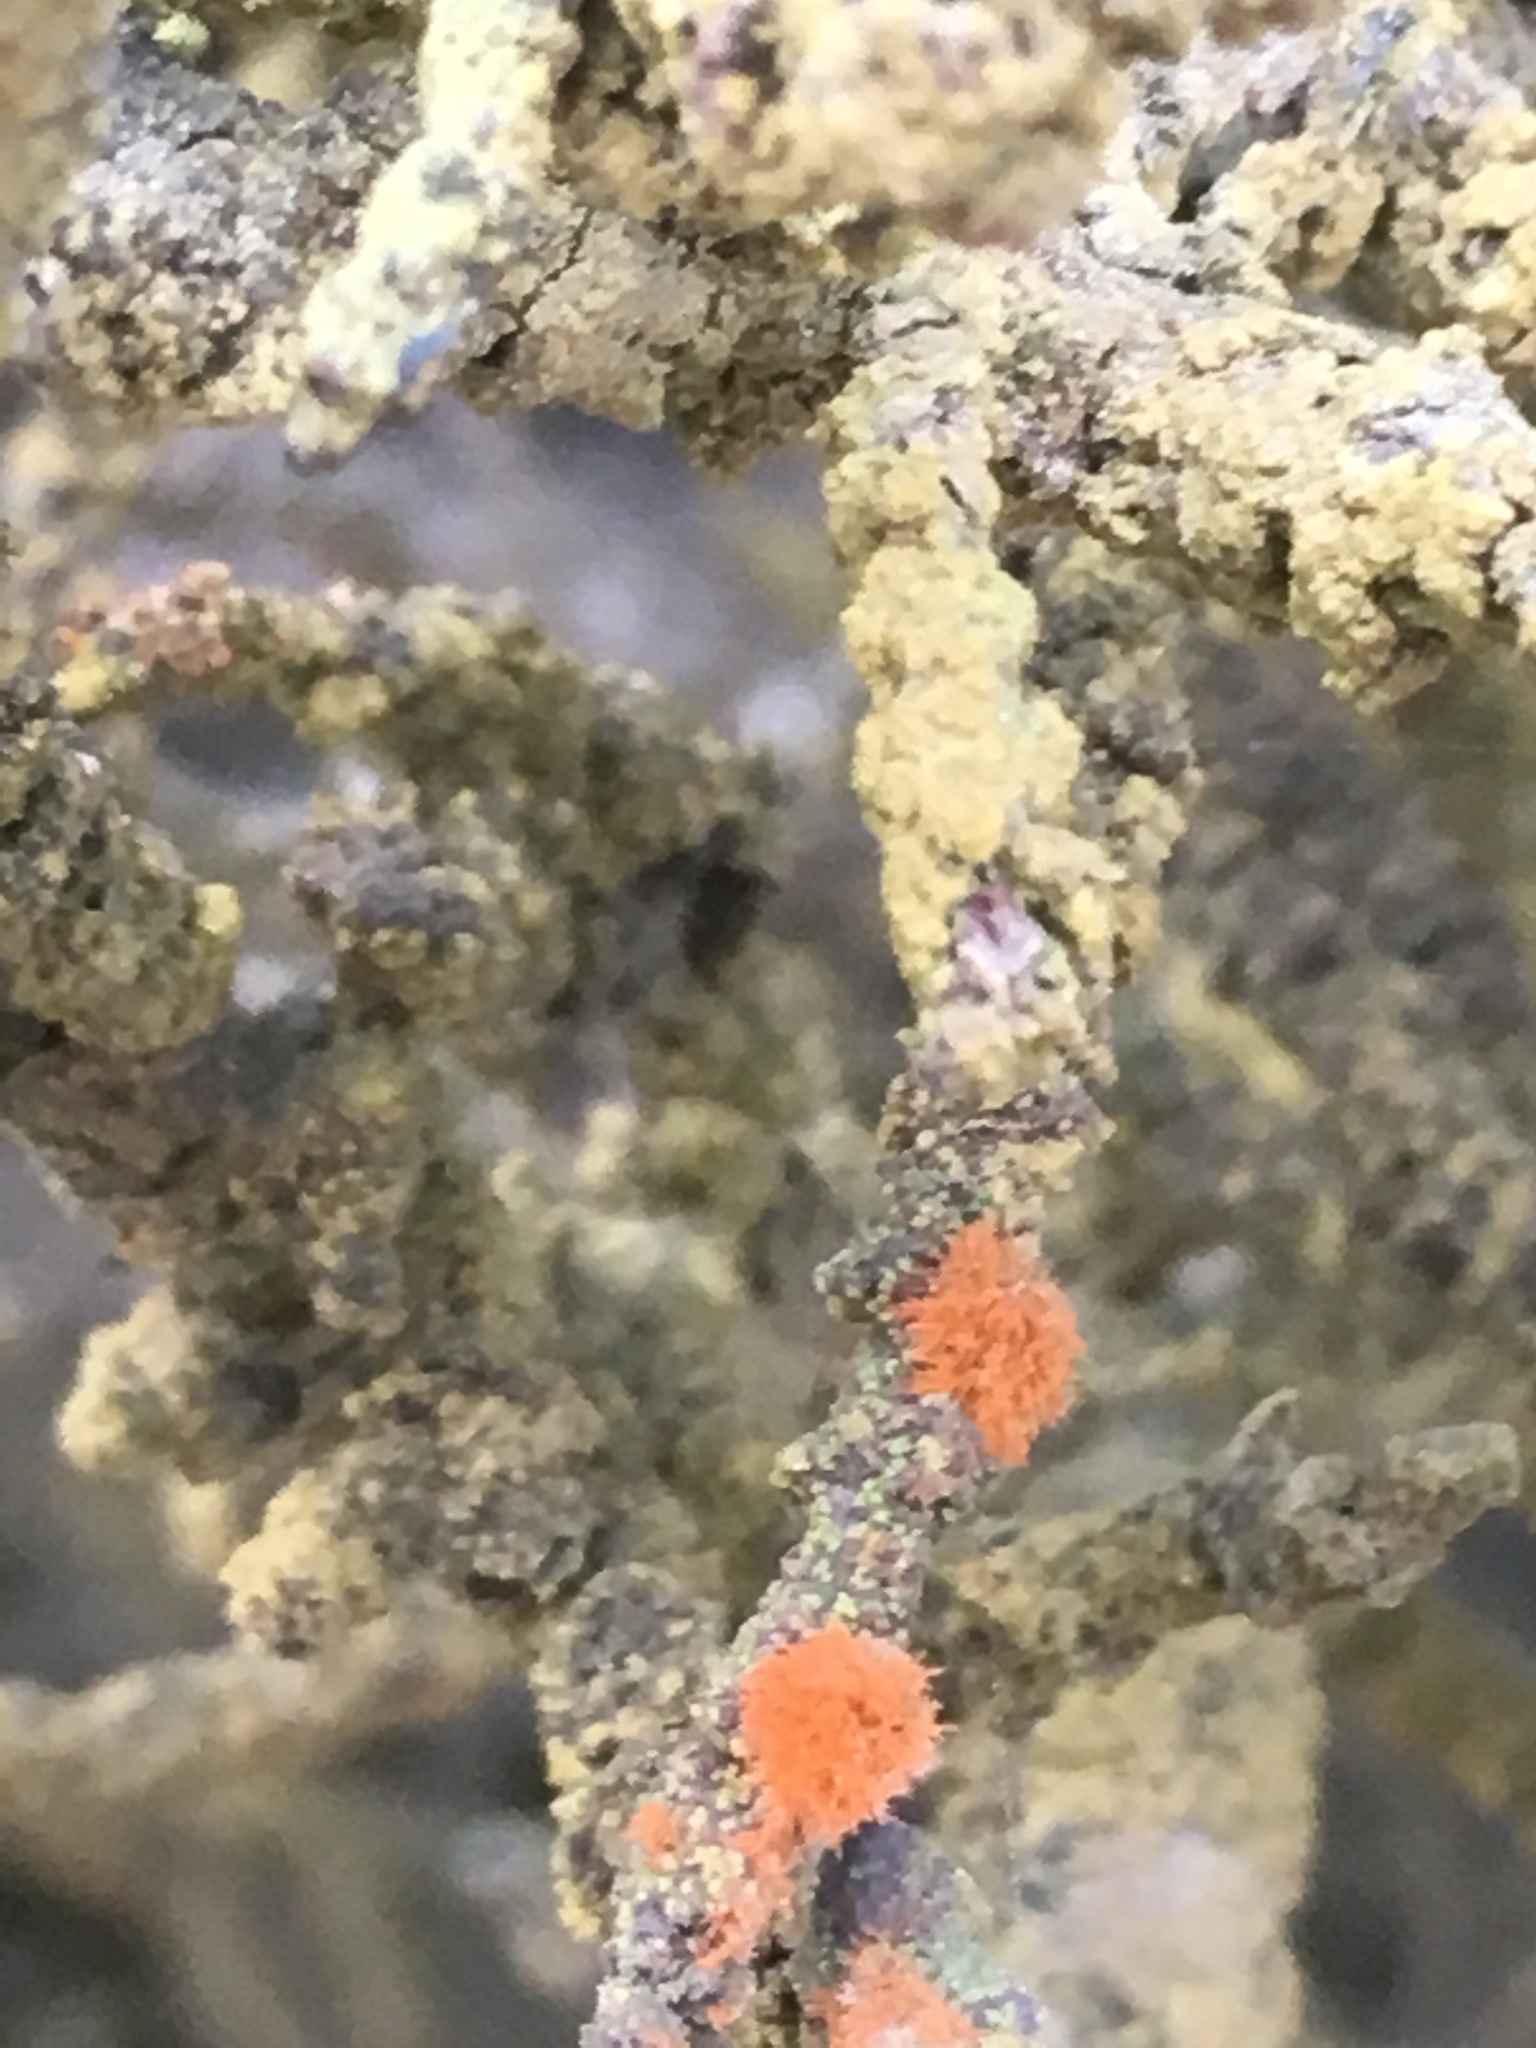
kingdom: Plantae
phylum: Chlorophyta
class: Ulvophyceae
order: Trentepohliales
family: Trentepohliaceae
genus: Trentepohlia
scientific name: Trentepohlia aurea
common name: Orange rock hair
